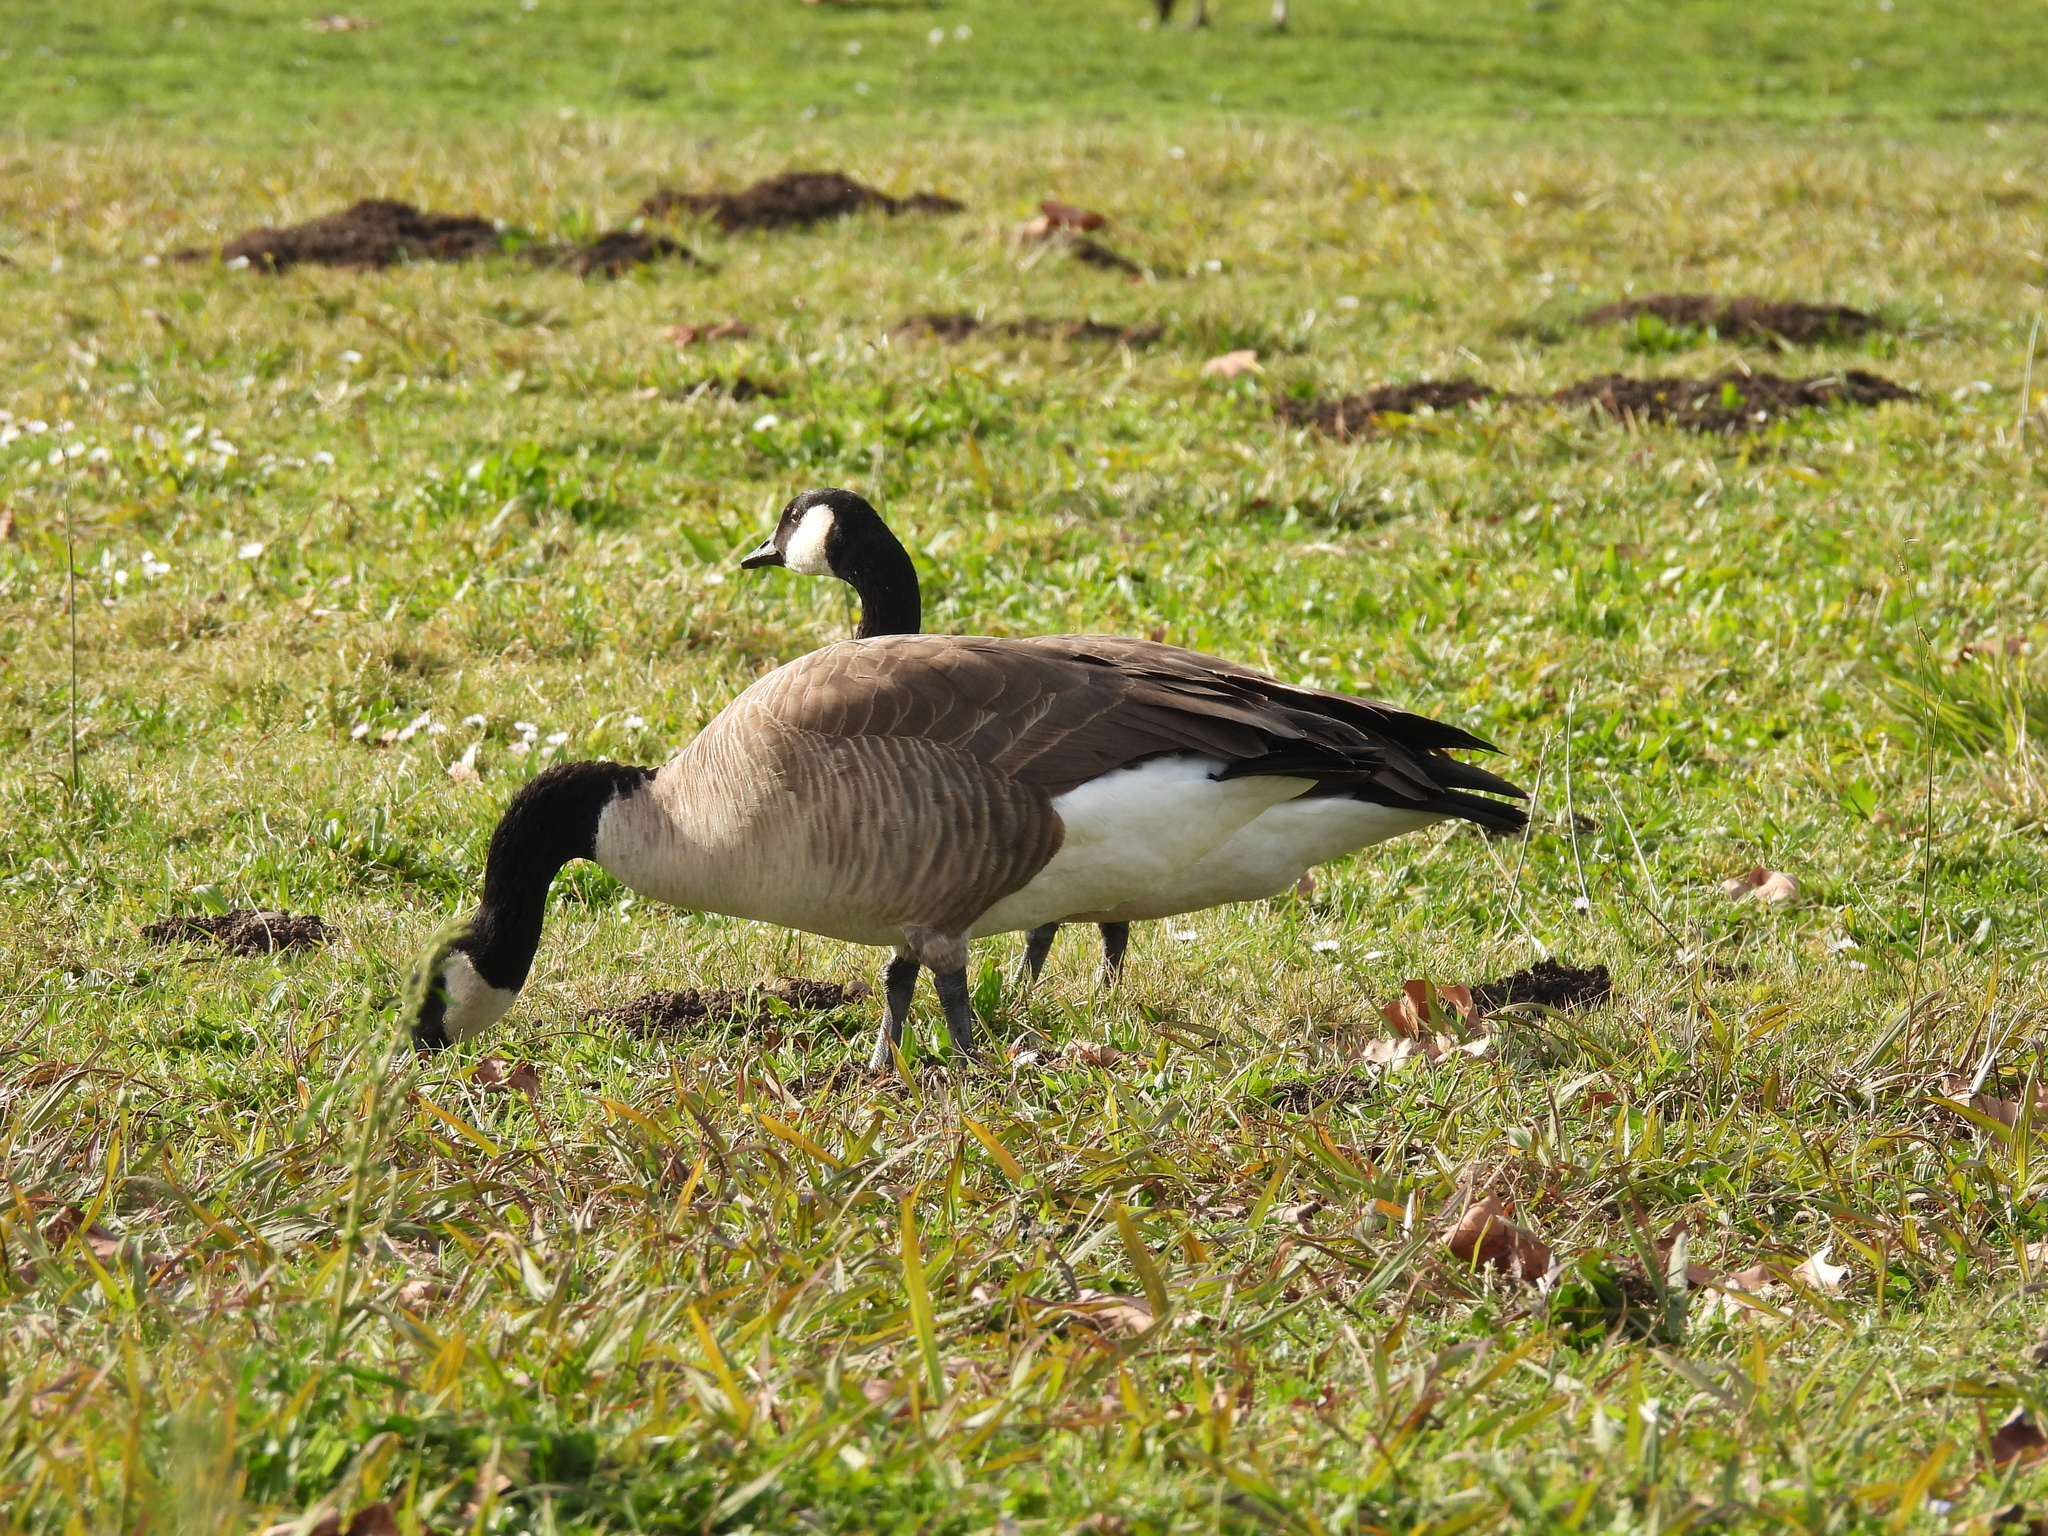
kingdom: Animalia
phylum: Chordata
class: Aves
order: Anseriformes
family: Anatidae
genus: Branta
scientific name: Branta canadensis
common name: Canada goose
